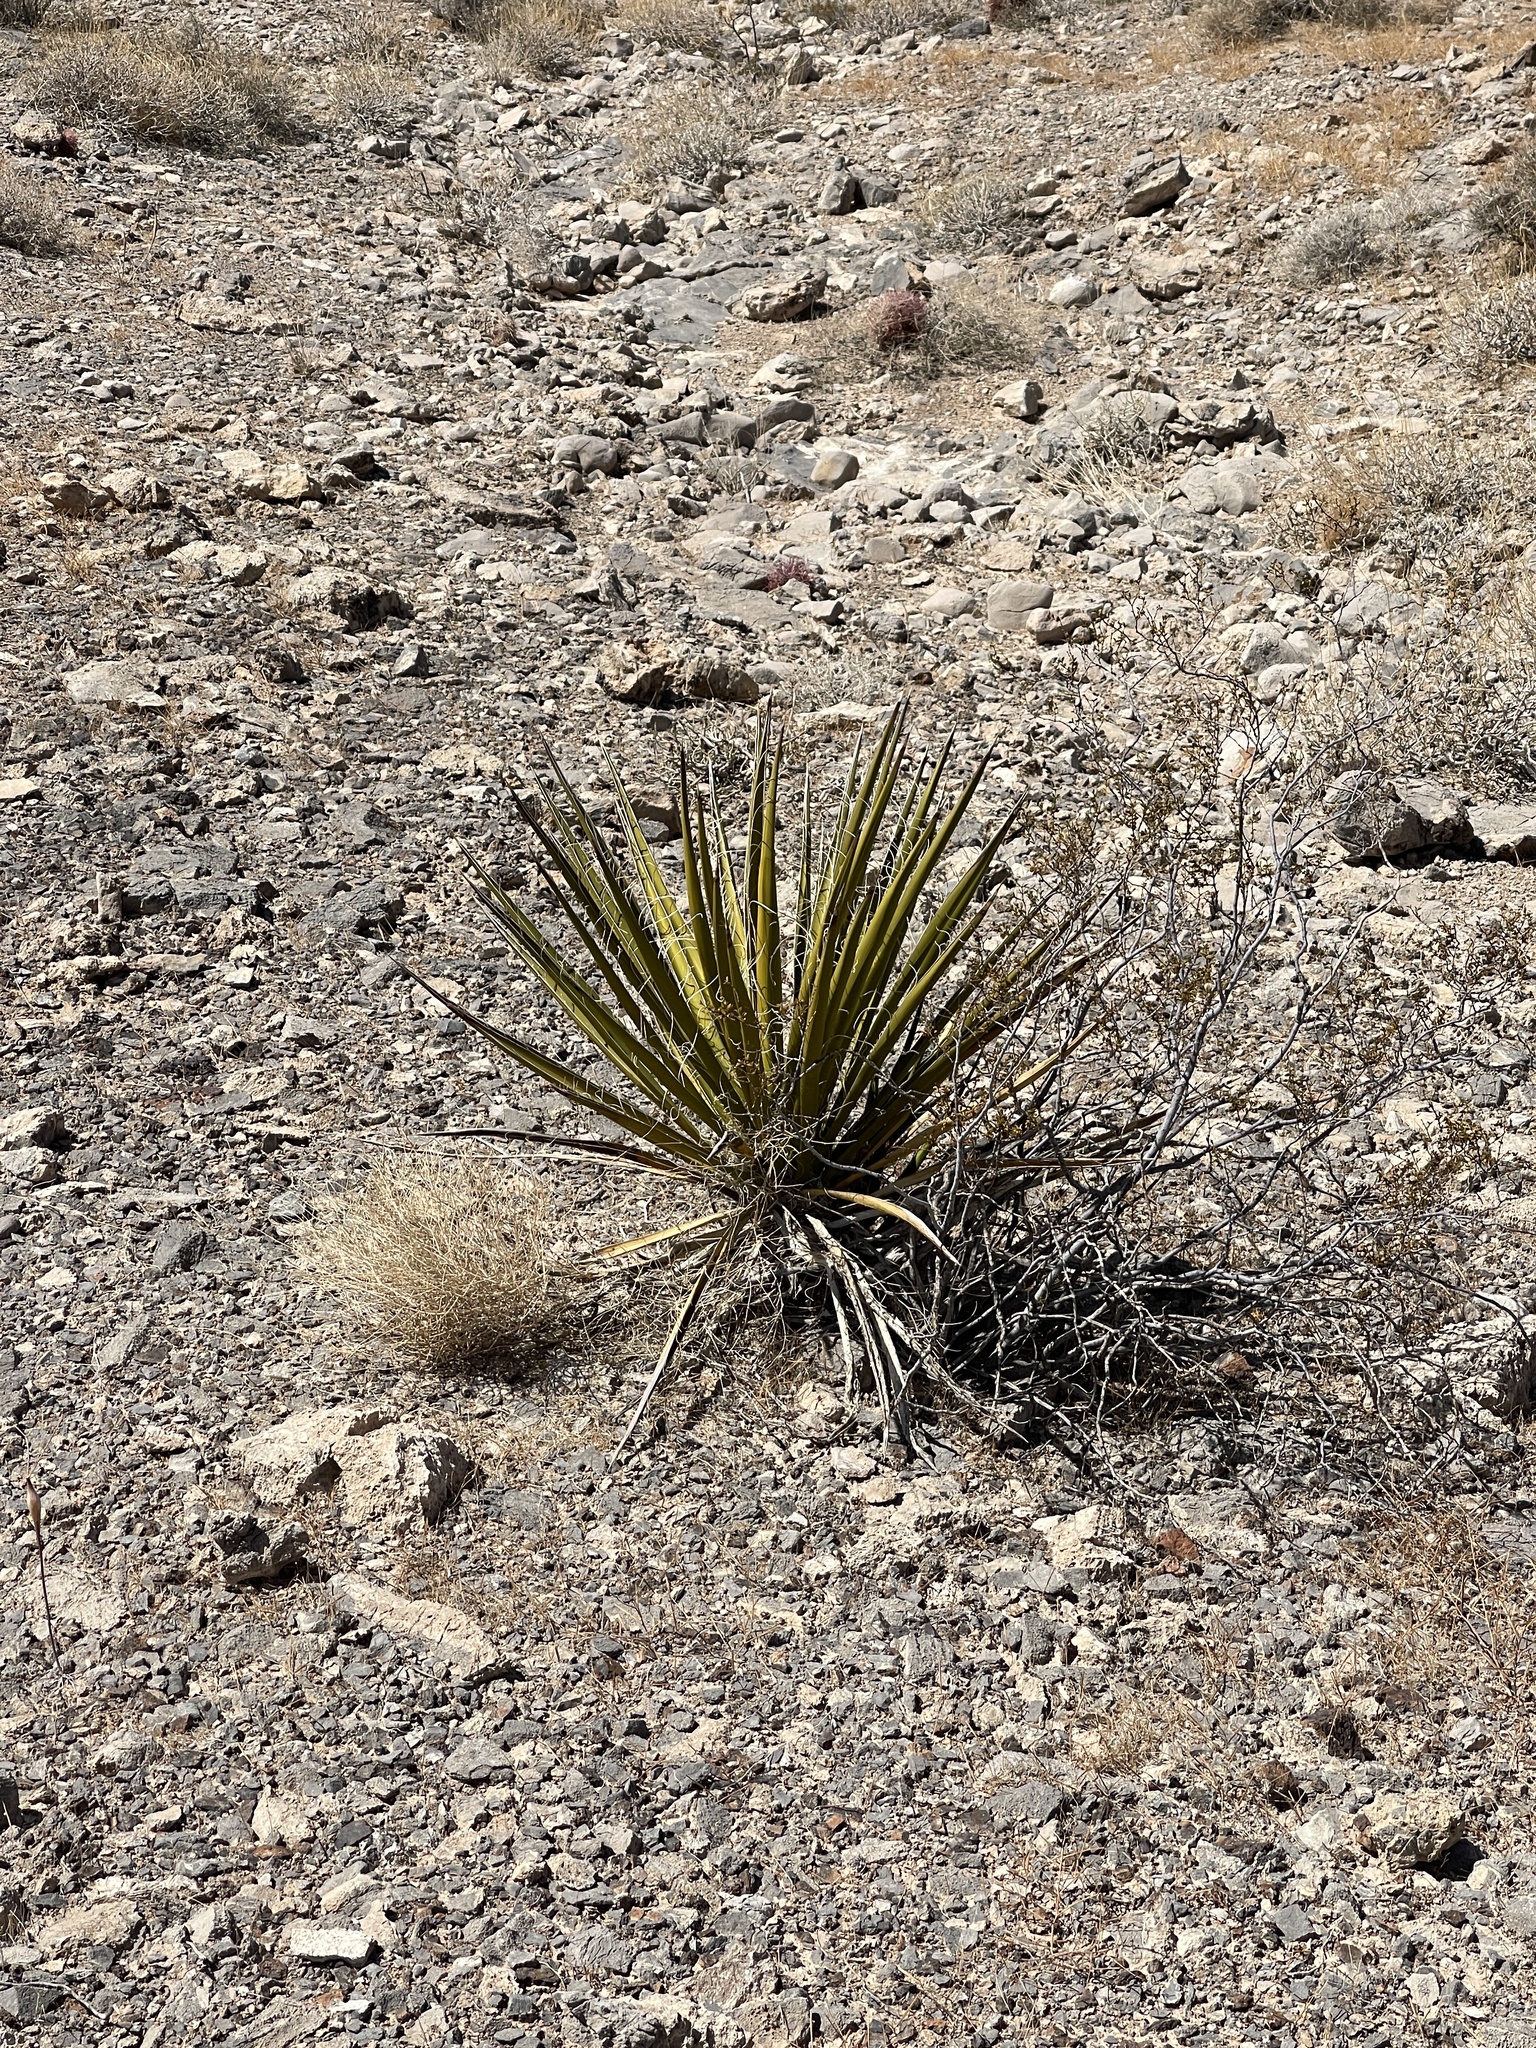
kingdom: Plantae
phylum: Tracheophyta
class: Liliopsida
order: Asparagales
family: Asparagaceae
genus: Yucca
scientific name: Yucca schidigera
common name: Mojave yucca
